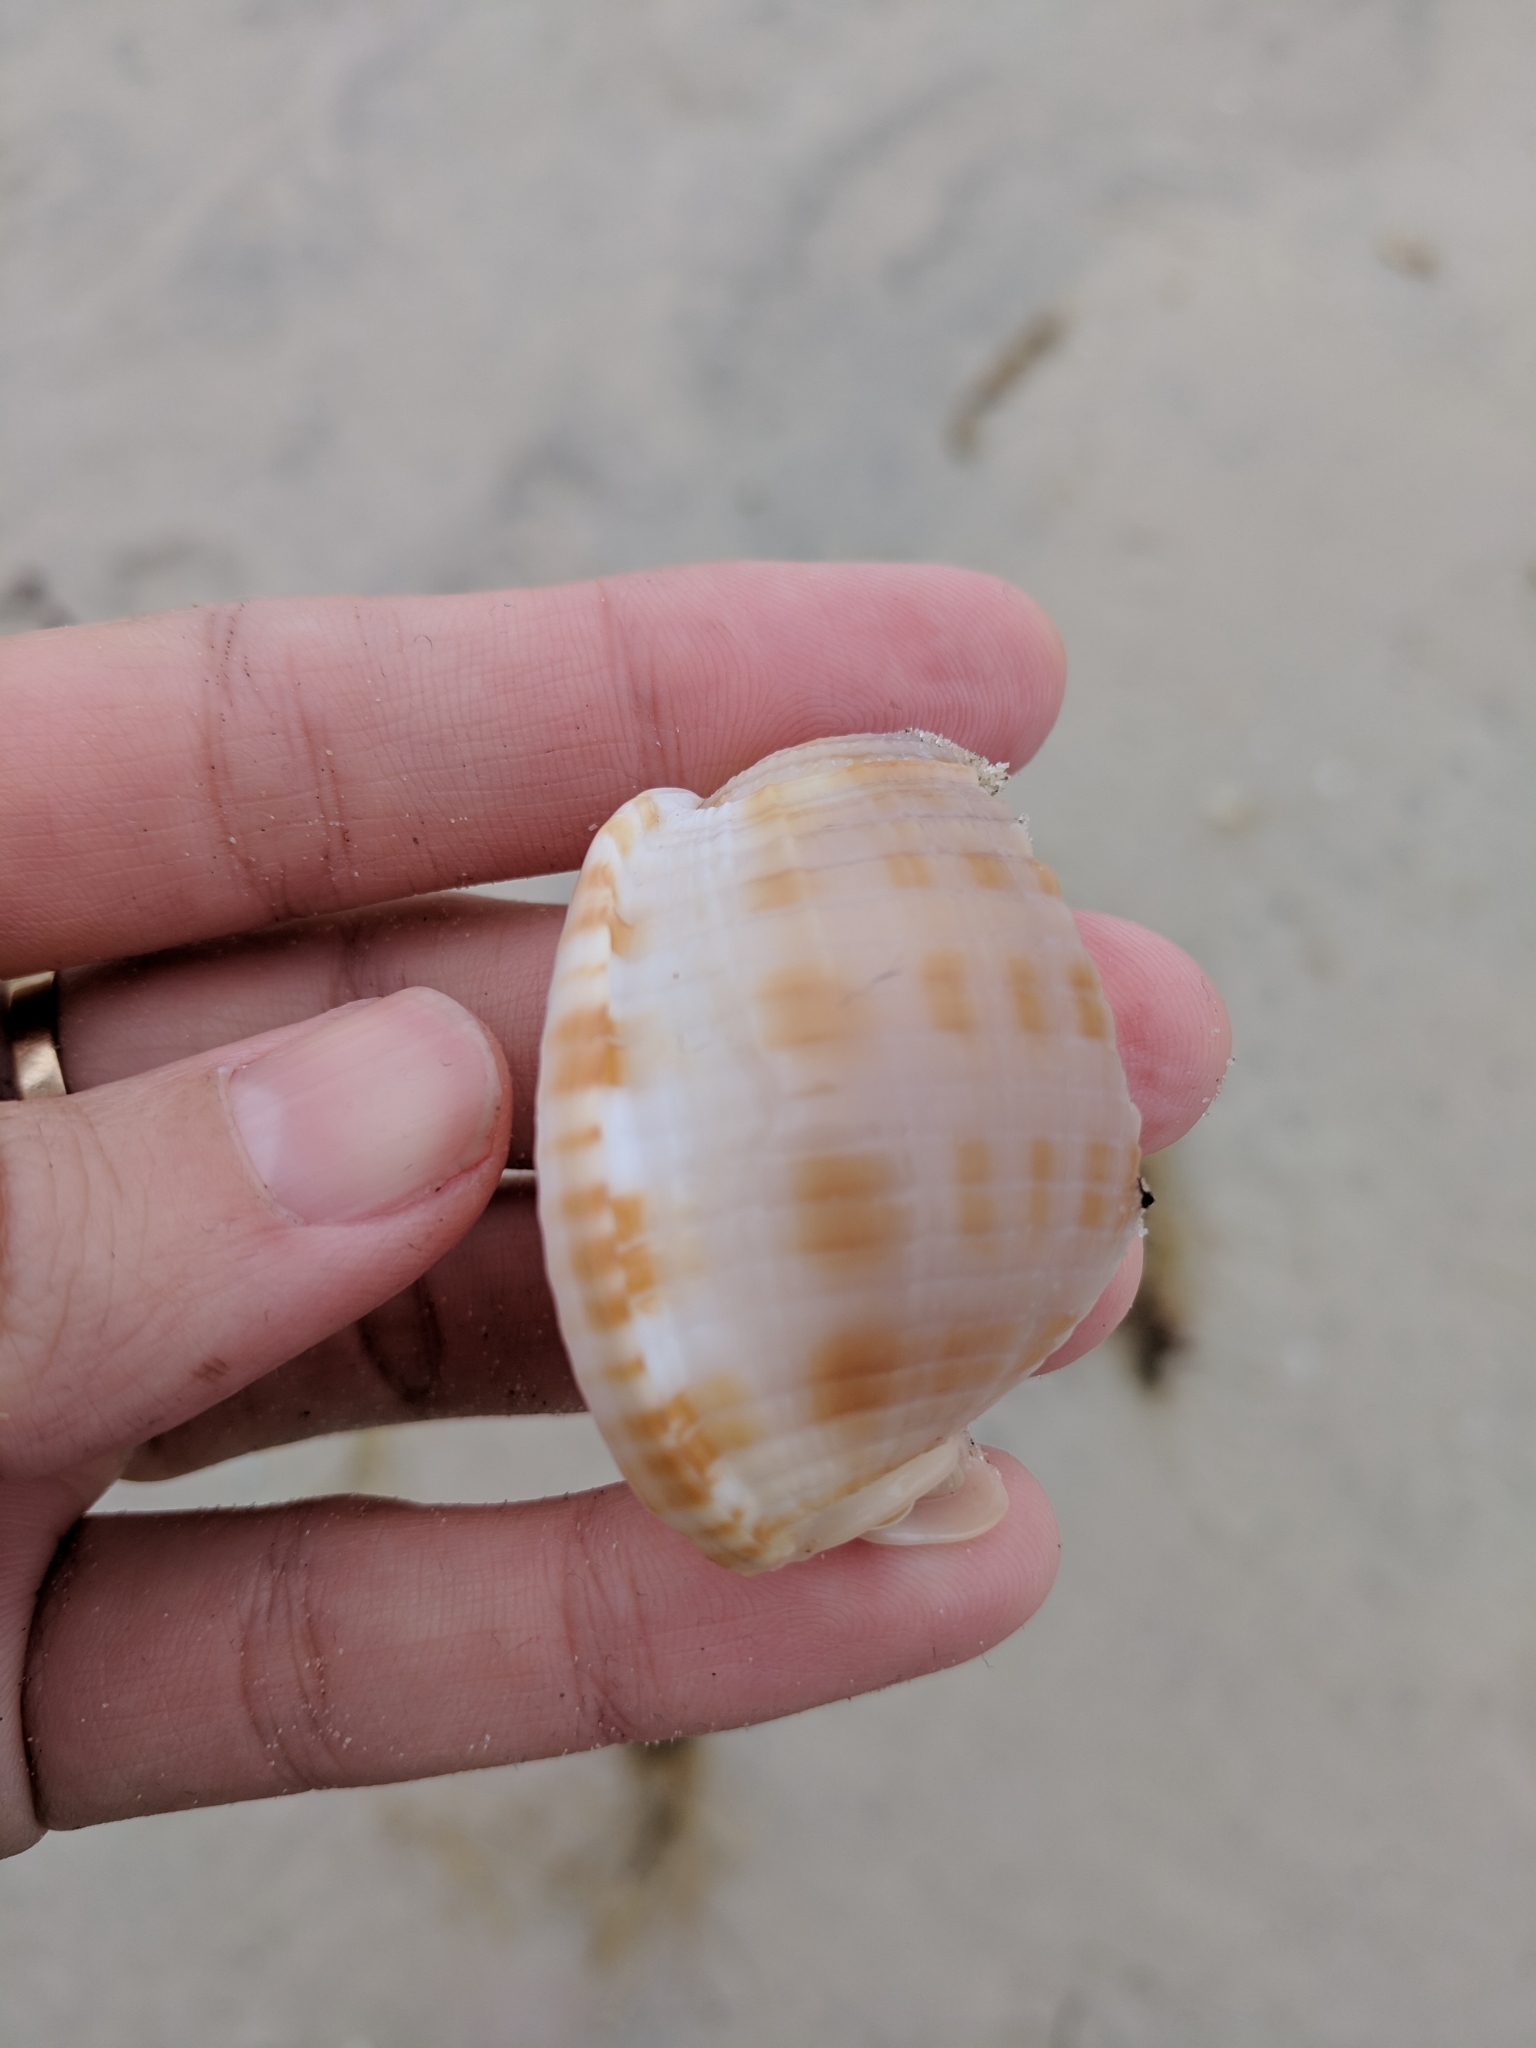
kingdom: Animalia
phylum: Mollusca
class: Gastropoda
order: Littorinimorpha
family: Cassidae
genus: Semicassis
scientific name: Semicassis granulata
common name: Scotch bonnet
